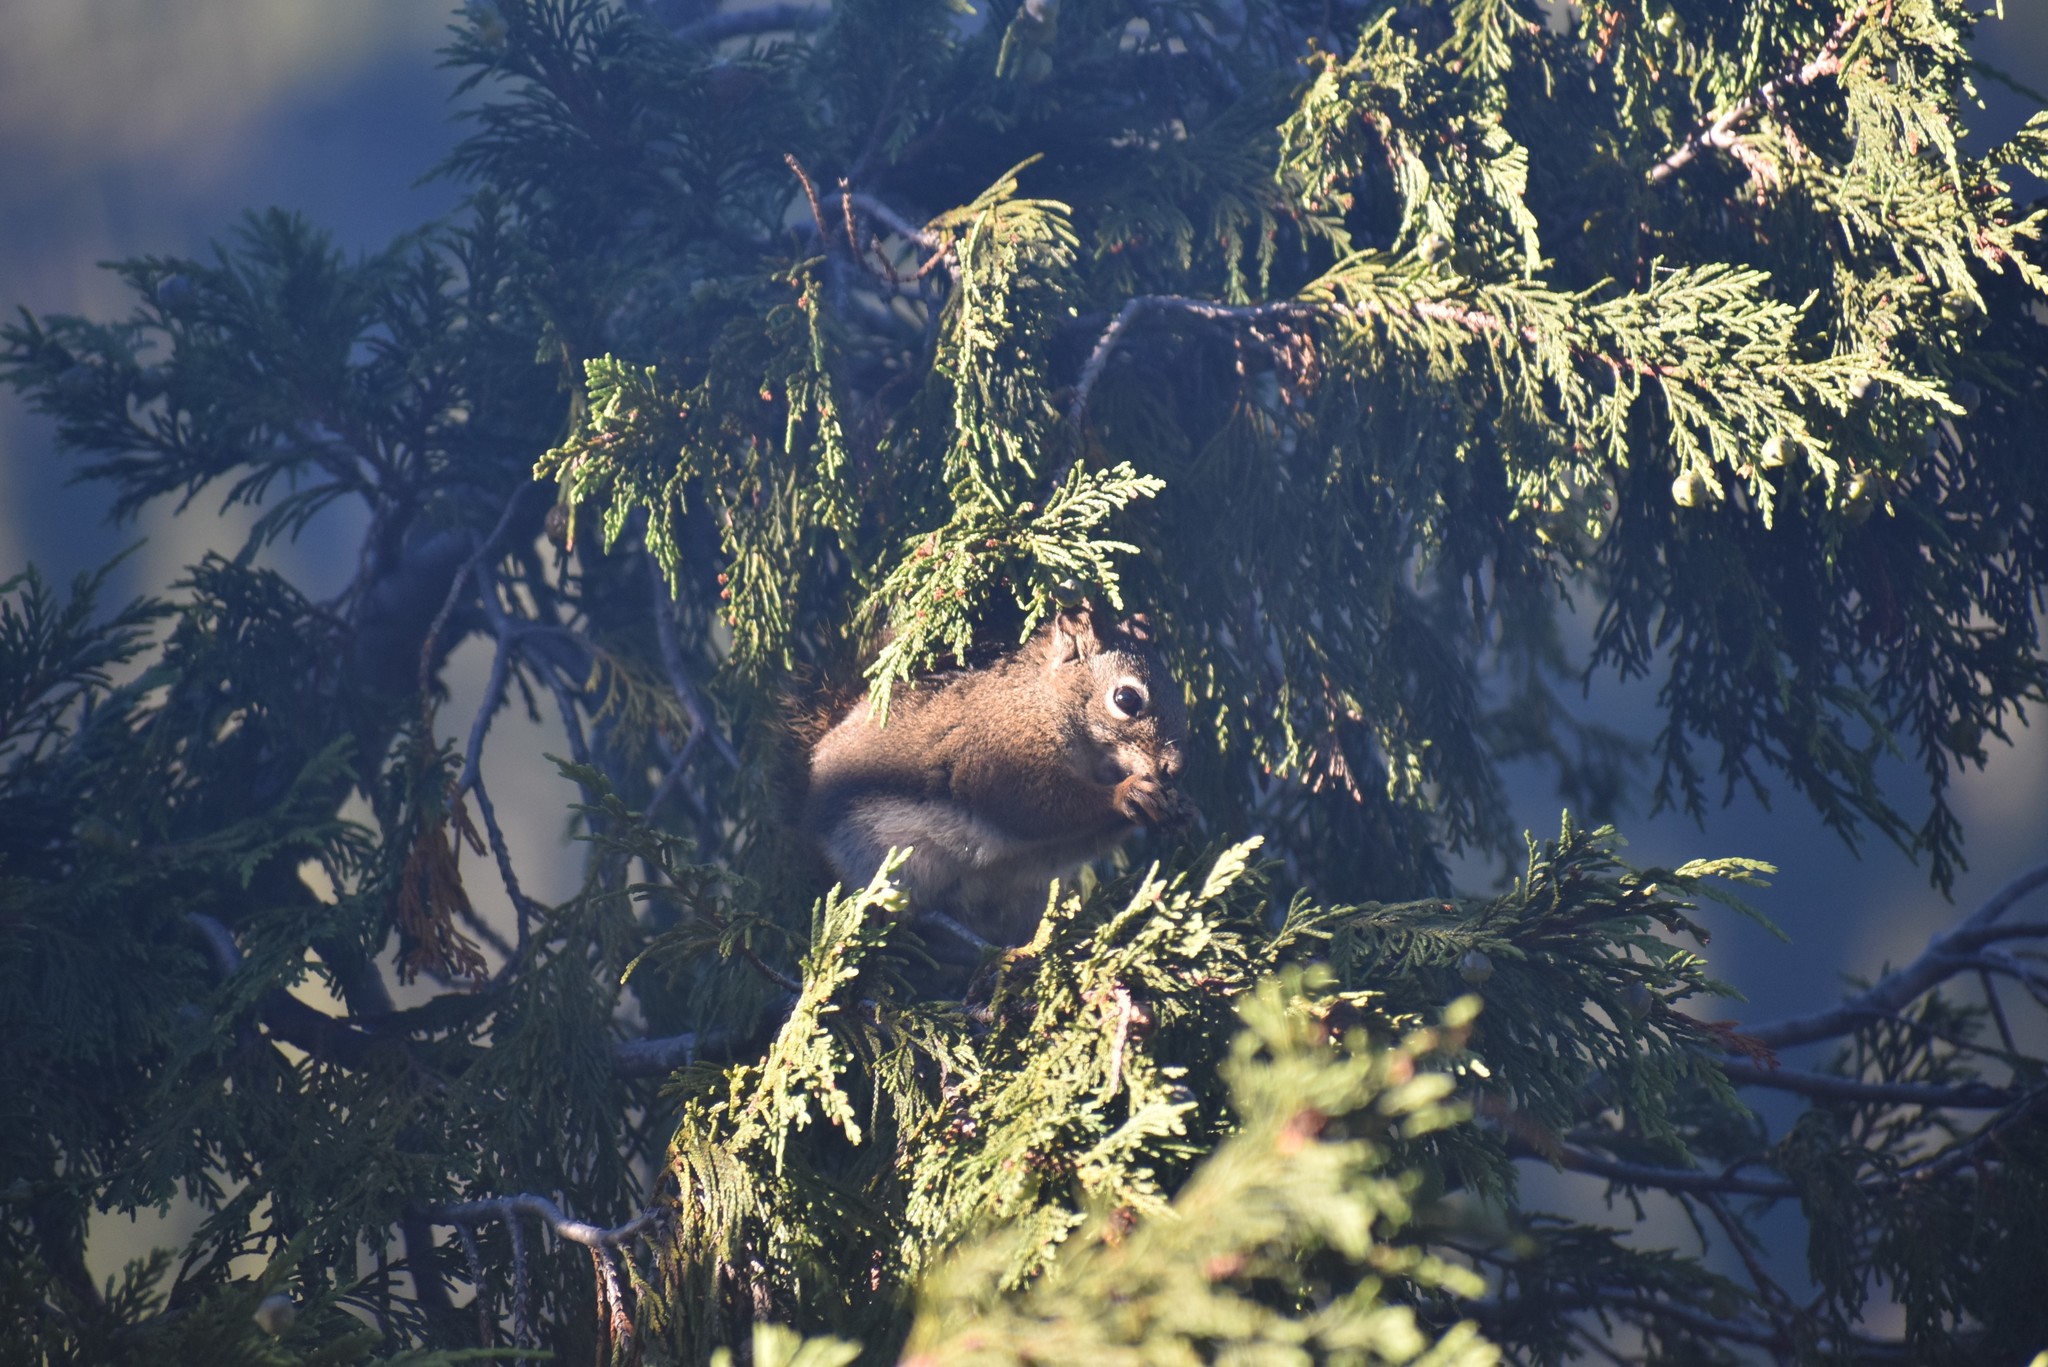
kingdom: Animalia
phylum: Chordata
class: Mammalia
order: Rodentia
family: Sciuridae
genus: Tamiasciurus
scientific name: Tamiasciurus hudsonicus
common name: Red squirrel
